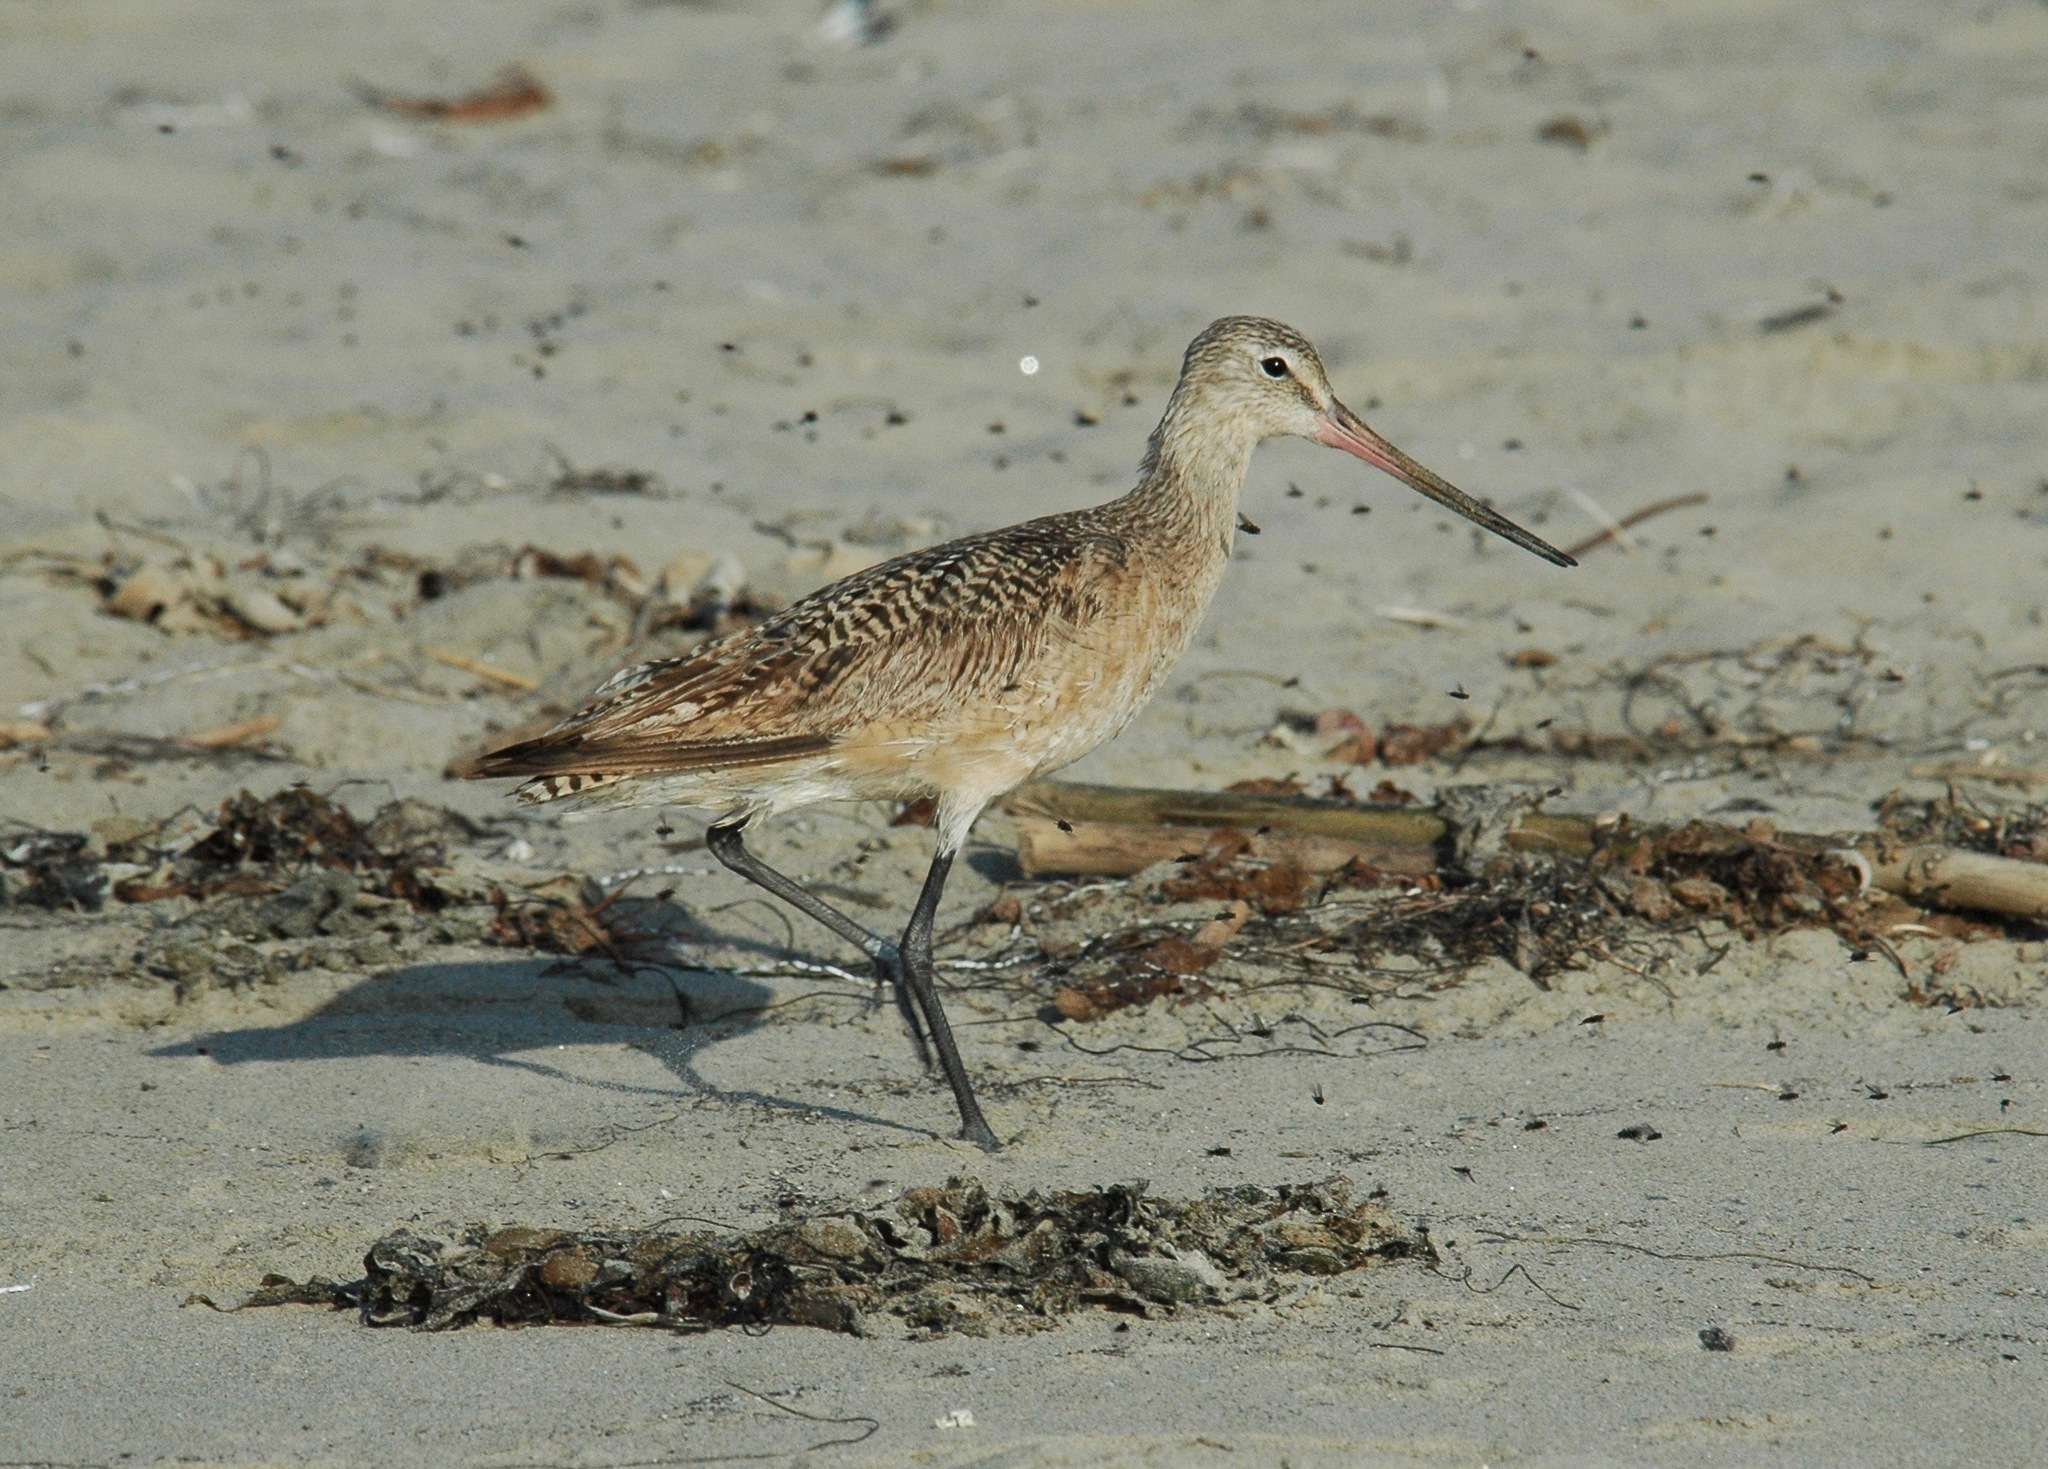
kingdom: Animalia
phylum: Chordata
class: Aves
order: Charadriiformes
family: Scolopacidae
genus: Limosa
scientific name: Limosa fedoa
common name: Marbled godwit
